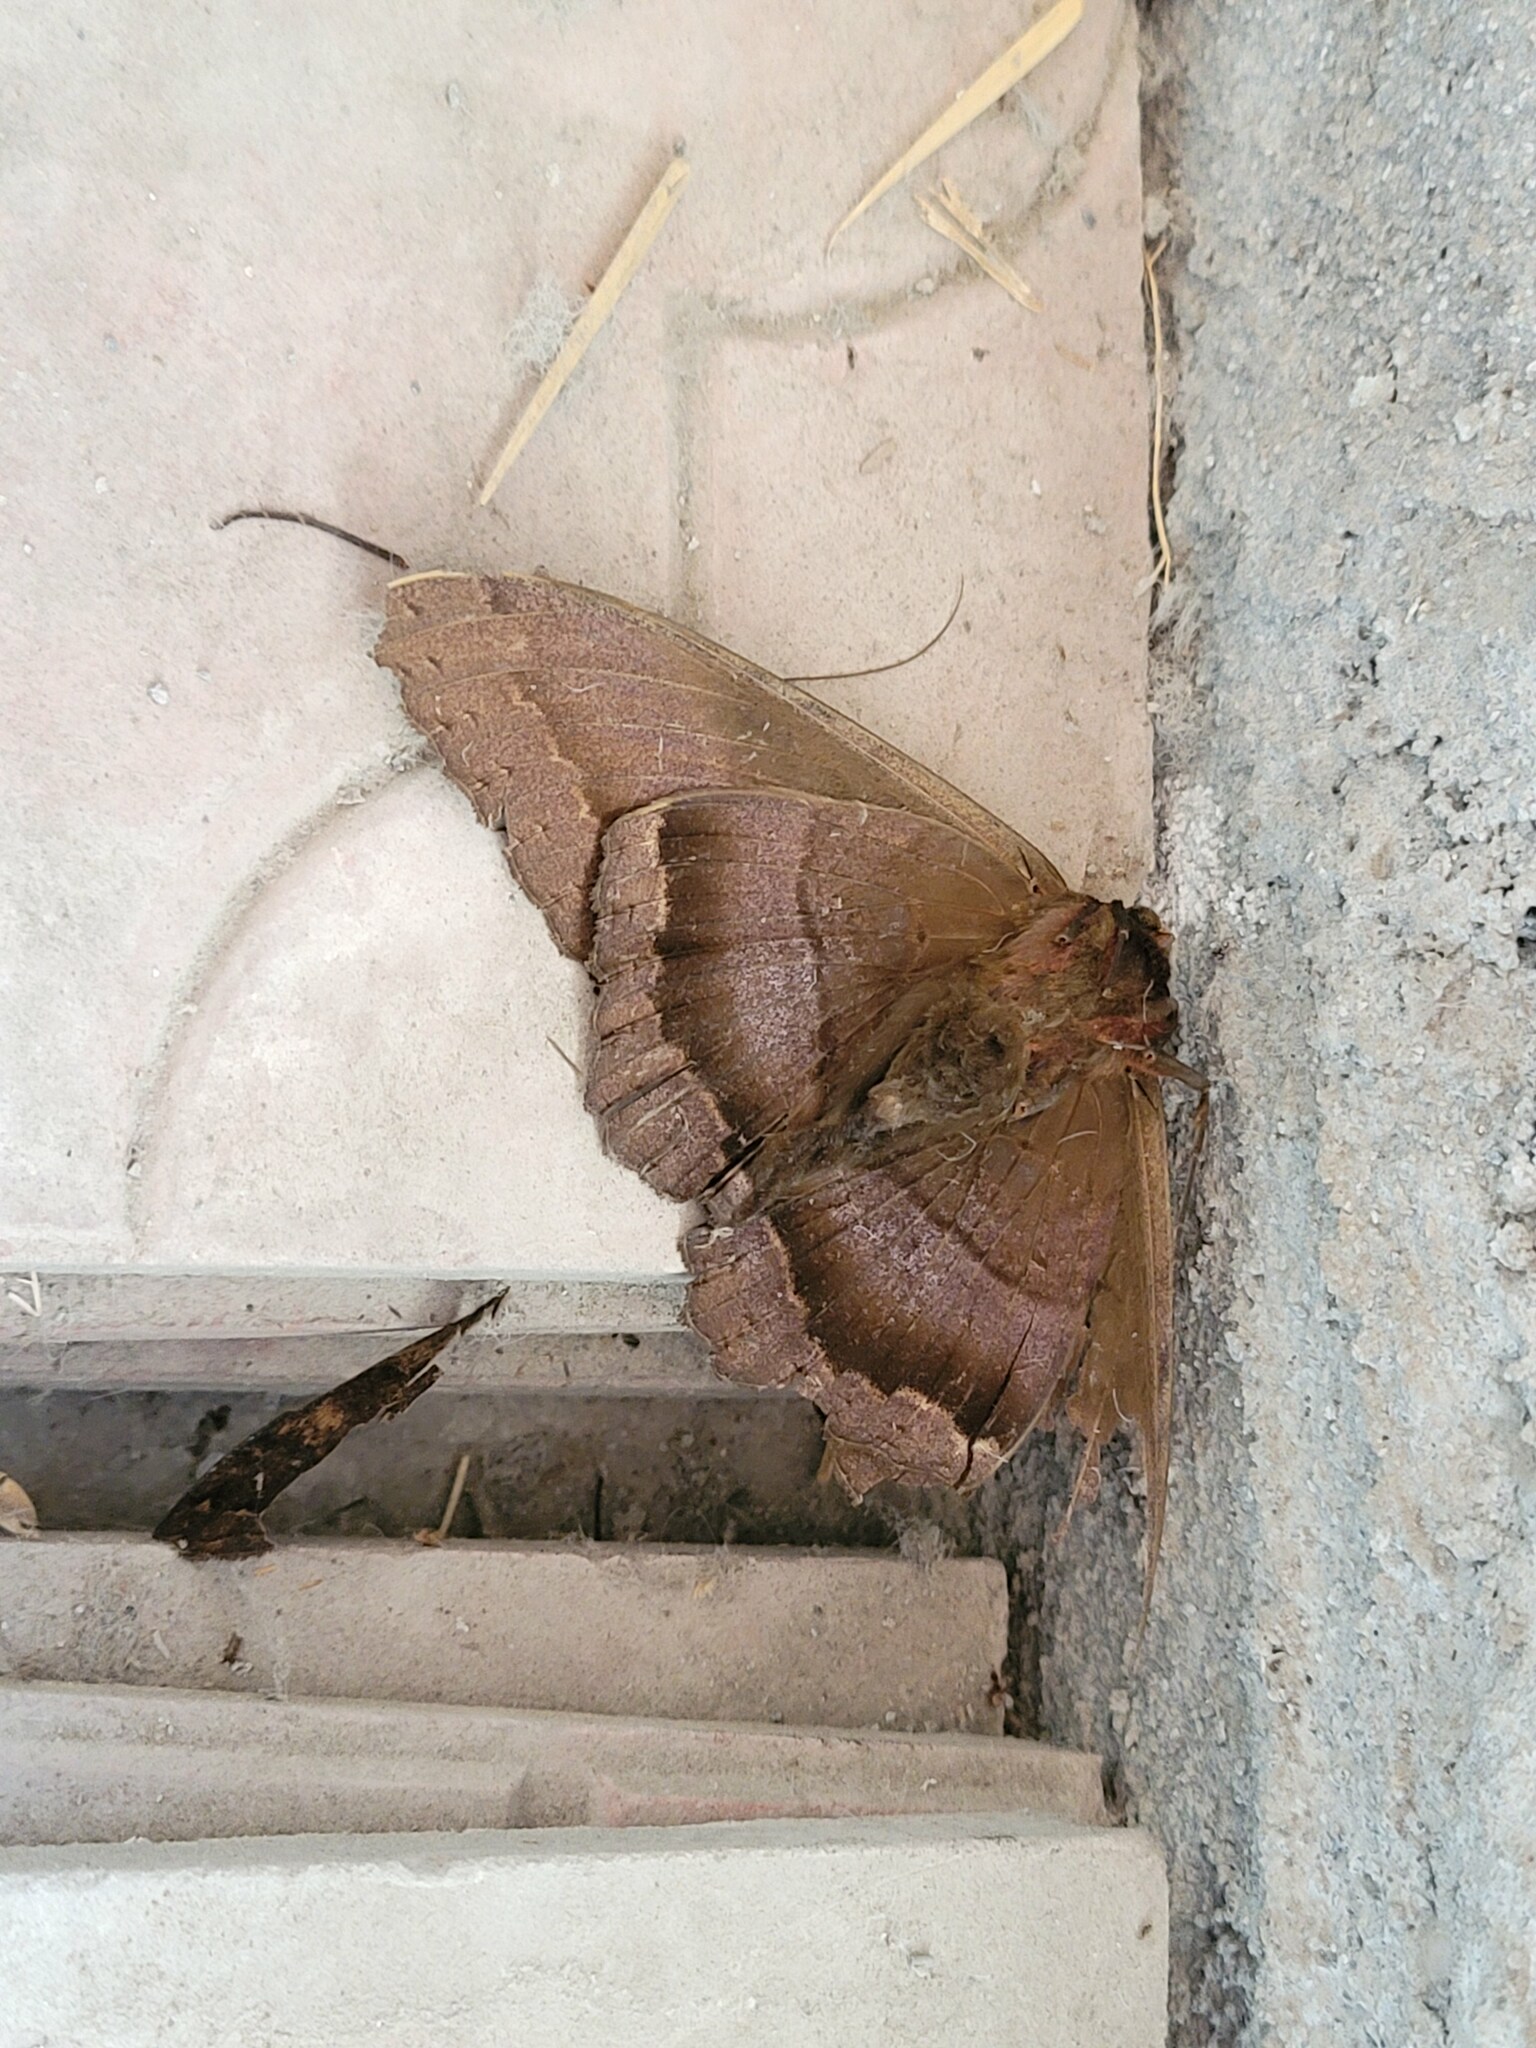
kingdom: Animalia
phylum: Arthropoda
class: Insecta
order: Lepidoptera
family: Erebidae
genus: Ascalapha
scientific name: Ascalapha odorata
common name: Black witch
